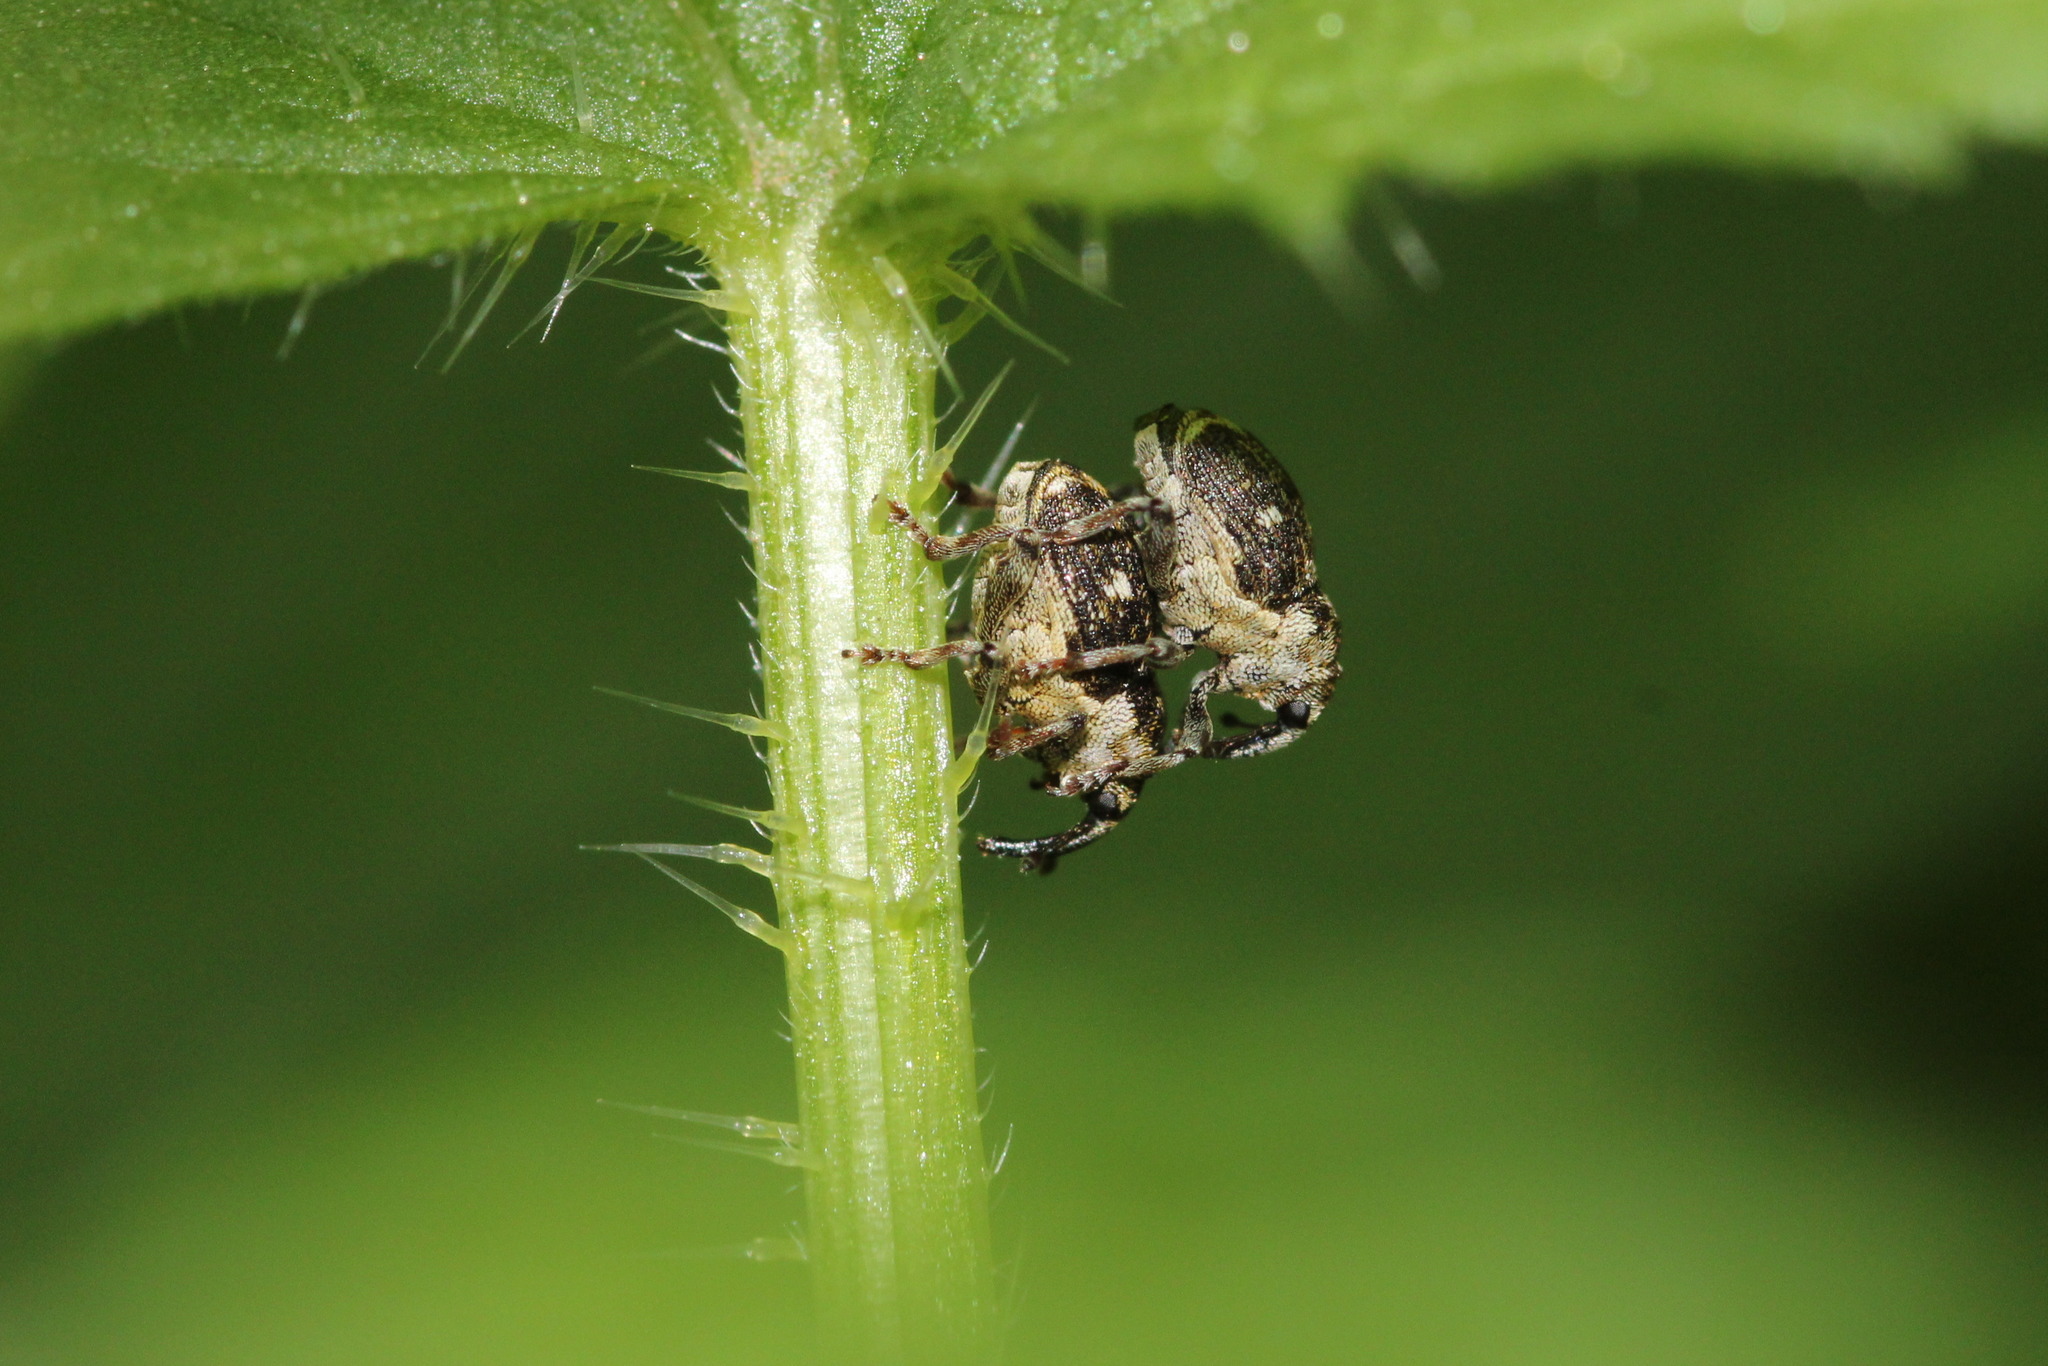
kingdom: Animalia
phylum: Arthropoda
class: Insecta
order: Coleoptera
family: Curculionidae
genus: Nedyus
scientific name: Nedyus quadrimaculatus
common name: Small nettle weevil
